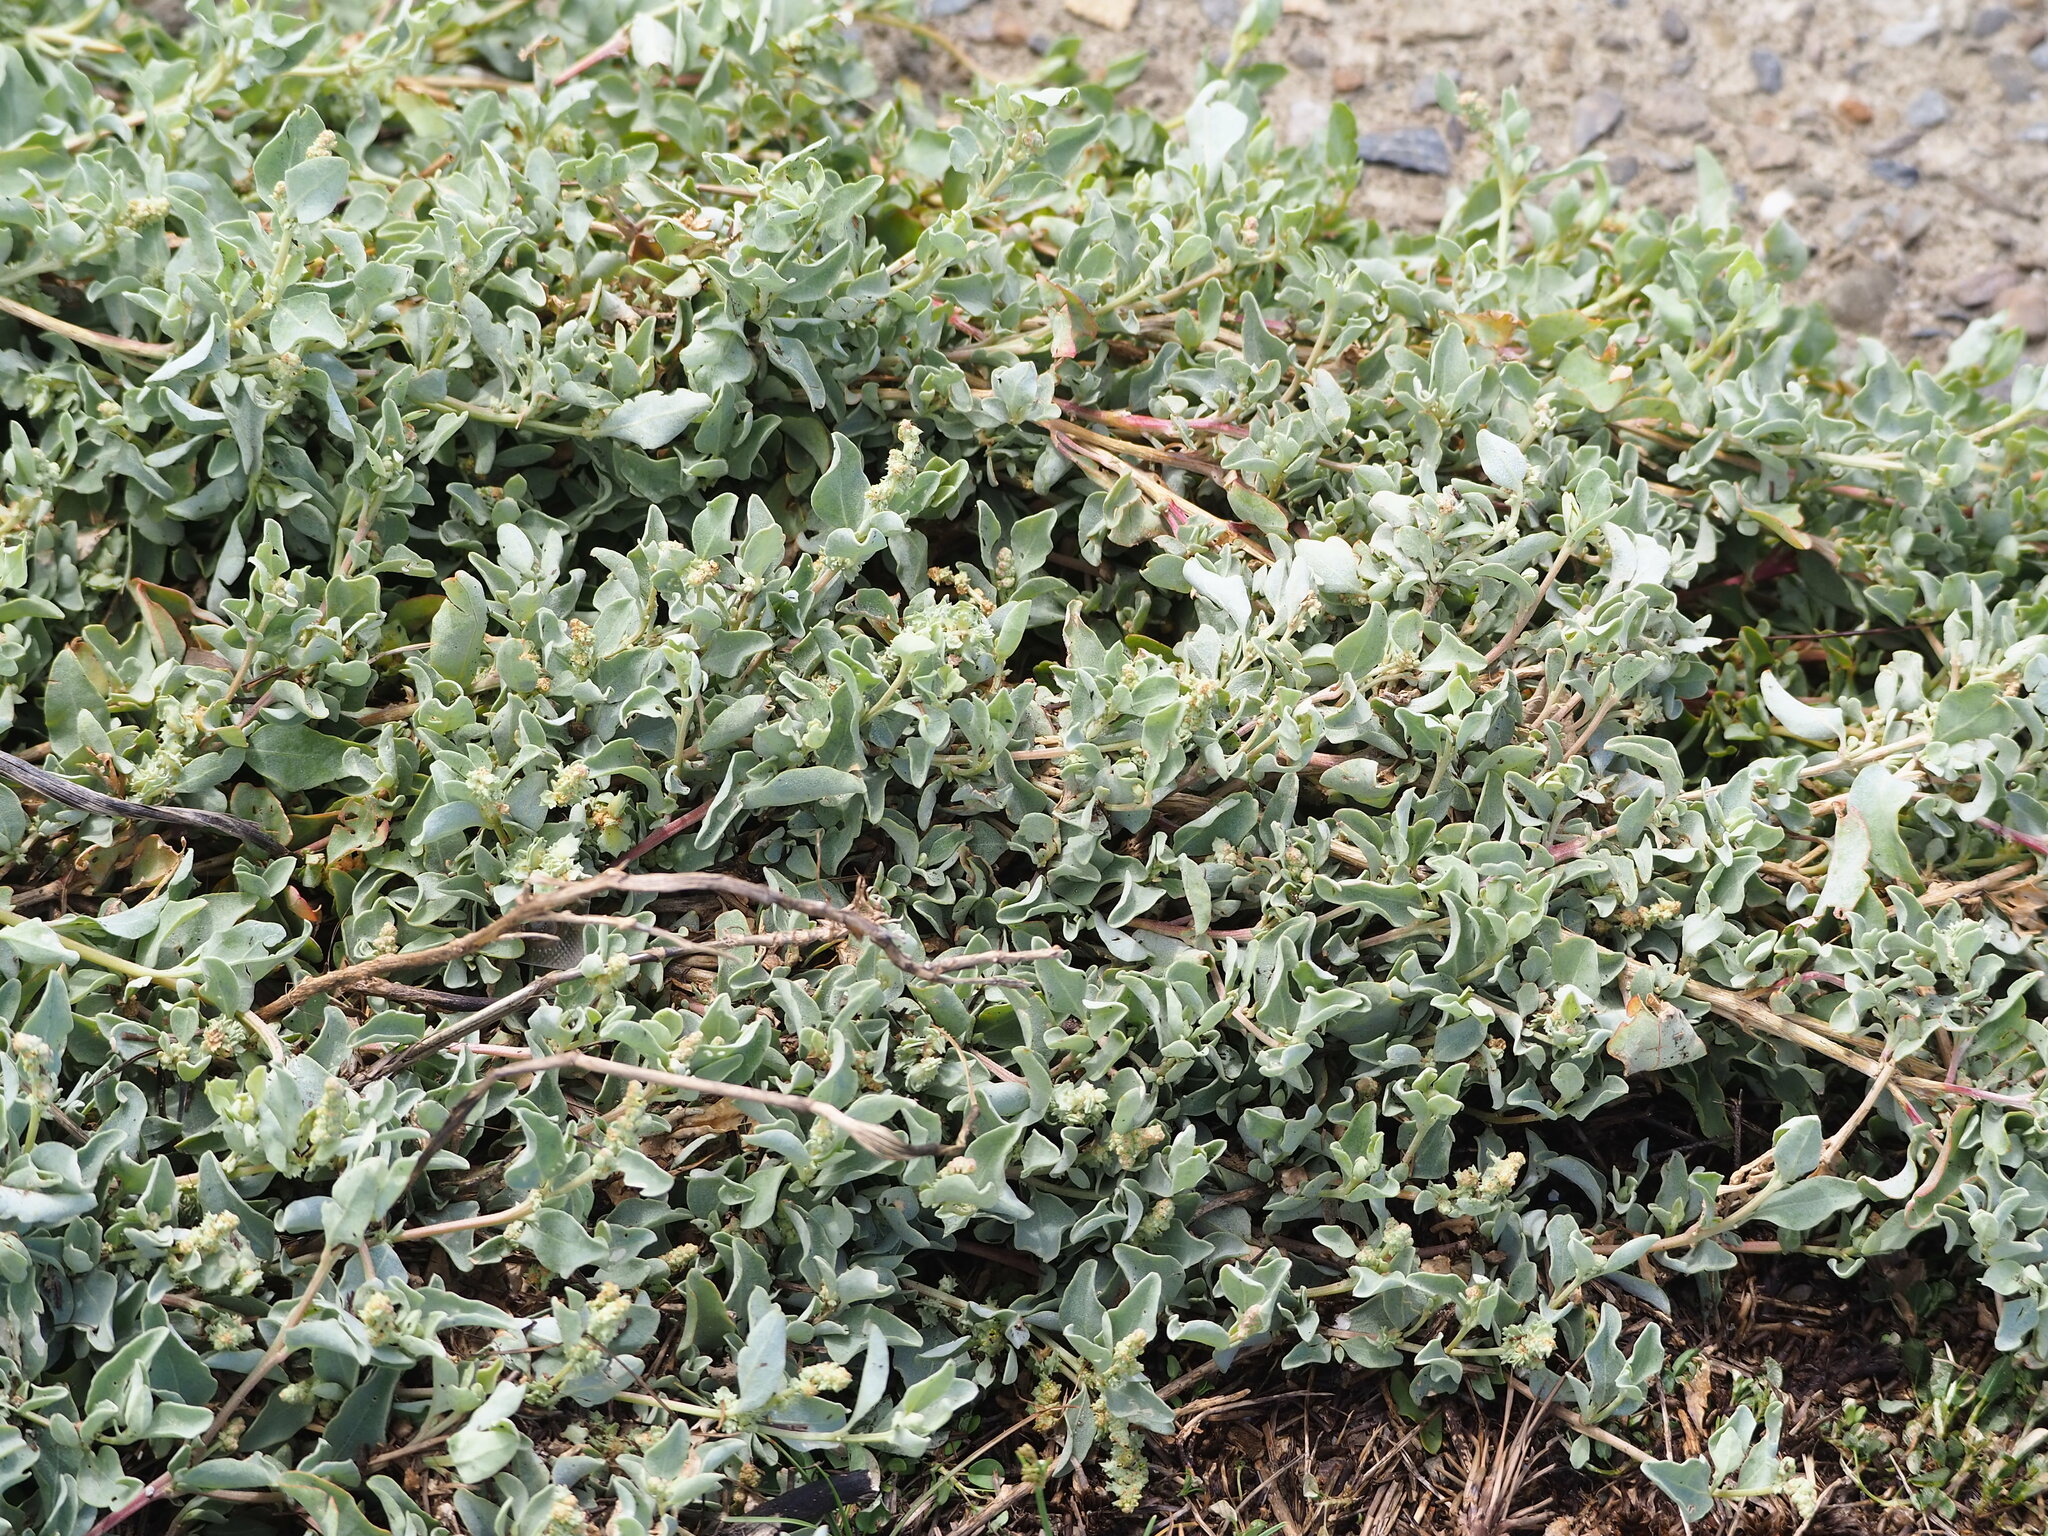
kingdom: Plantae
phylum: Tracheophyta
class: Magnoliopsida
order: Caryophyllales
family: Amaranthaceae
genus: Atriplex
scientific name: Atriplex maximowicziana
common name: Maximowicz's saltbush
